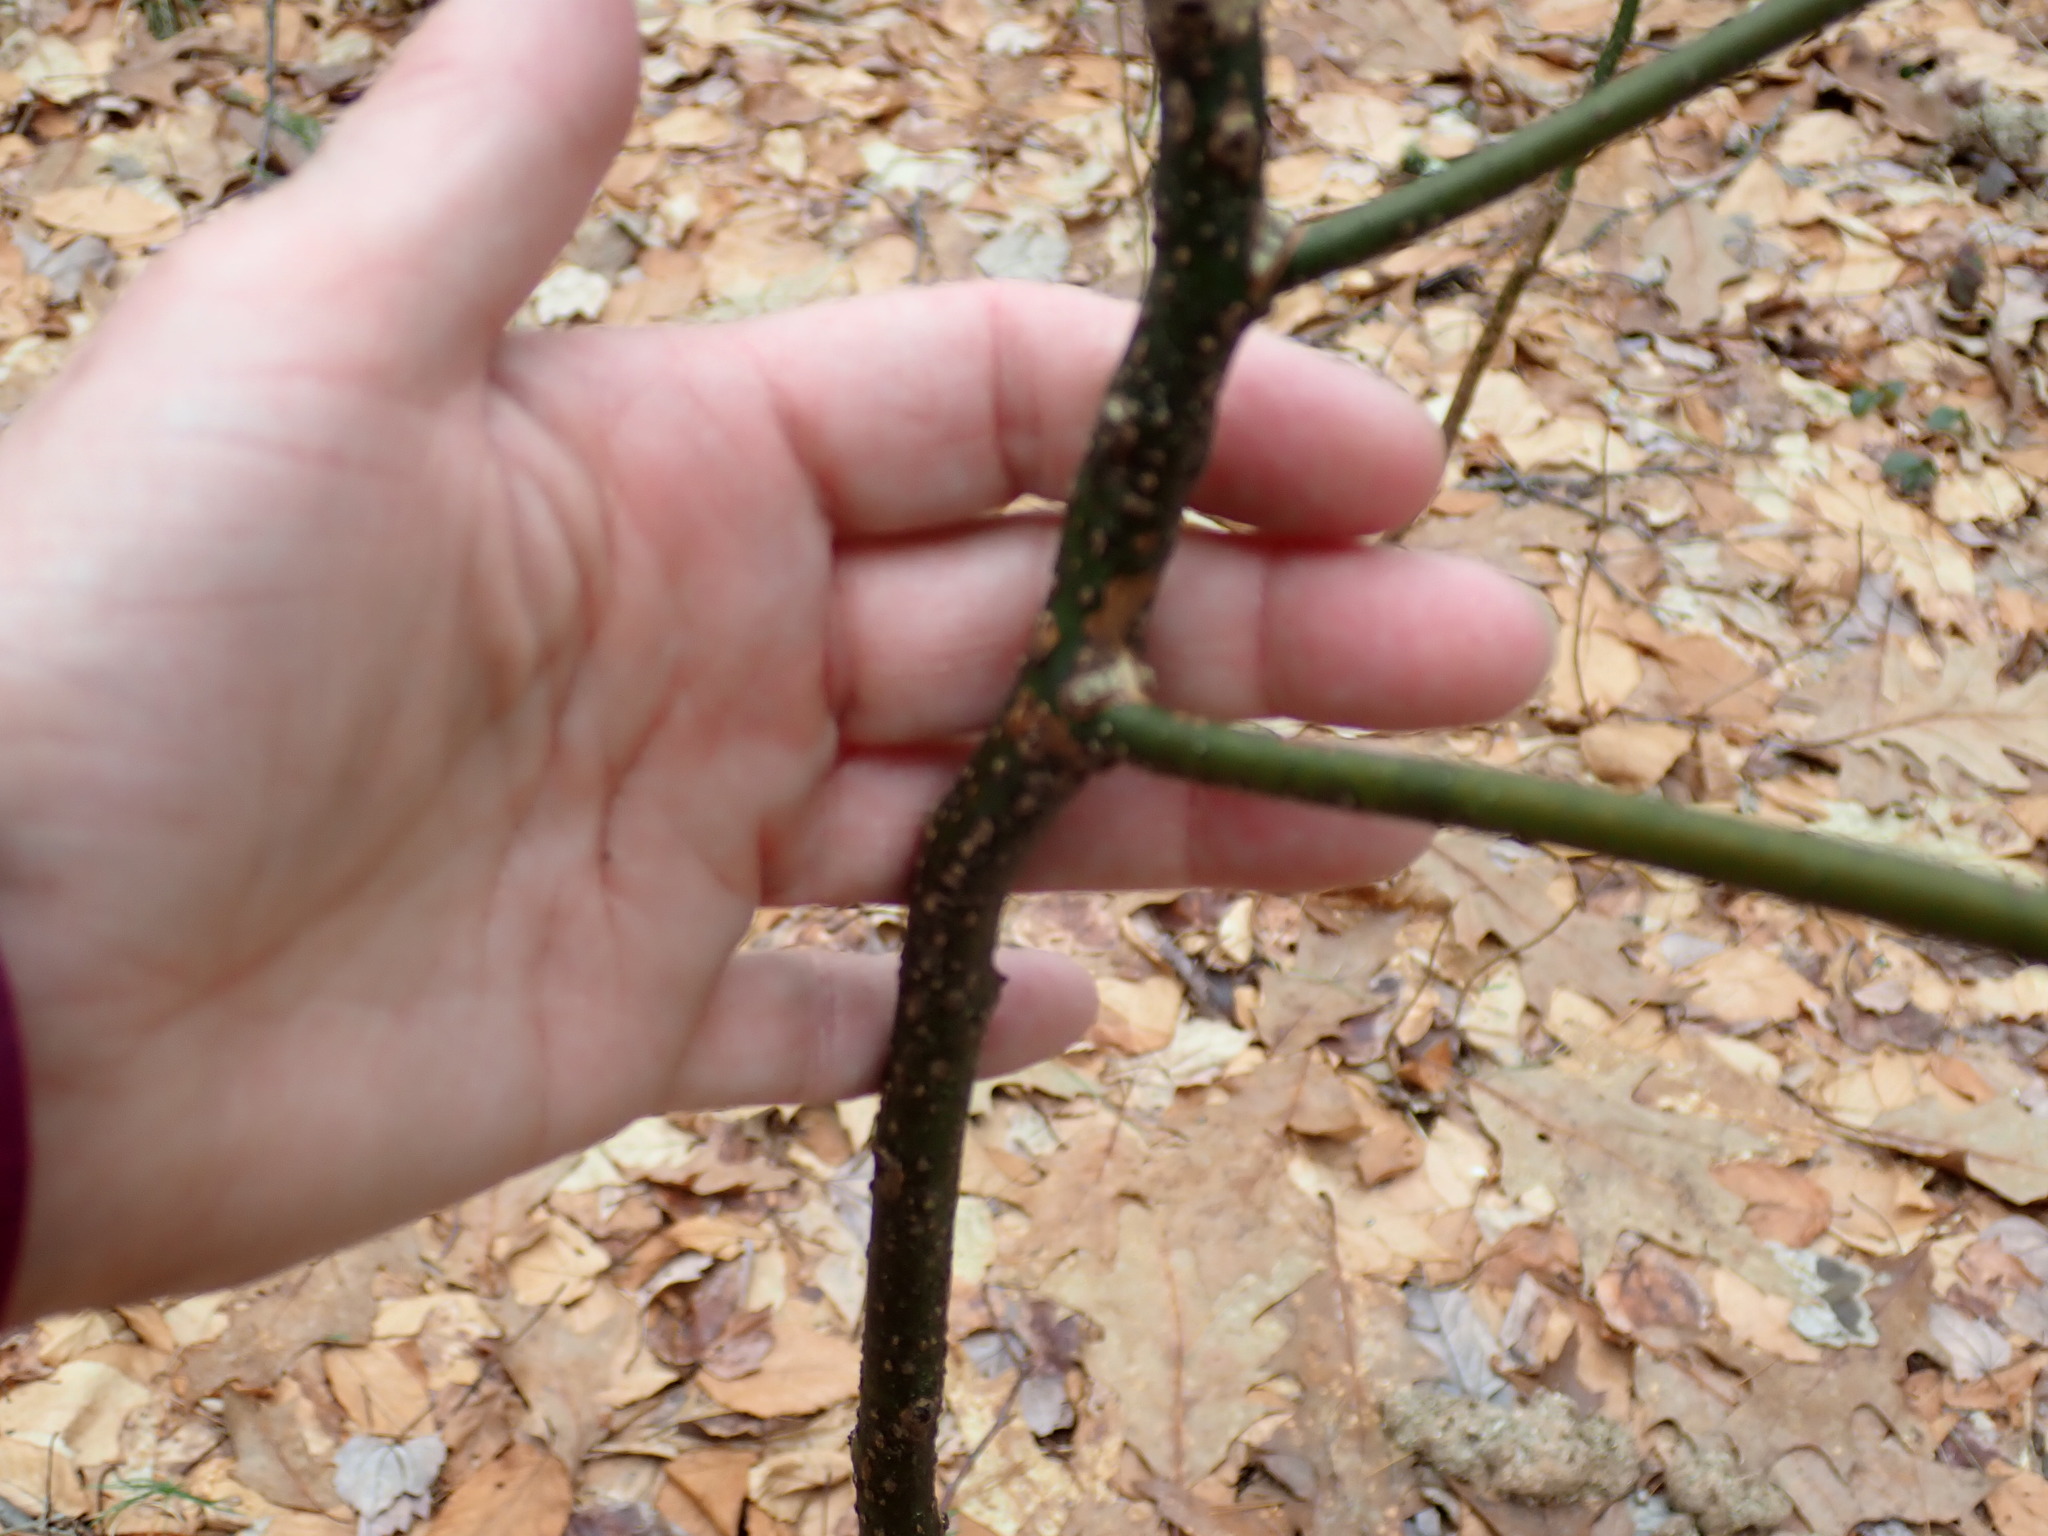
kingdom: Plantae
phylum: Tracheophyta
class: Magnoliopsida
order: Laurales
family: Lauraceae
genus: Sassafras
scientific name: Sassafras albidum
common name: Sassafras
